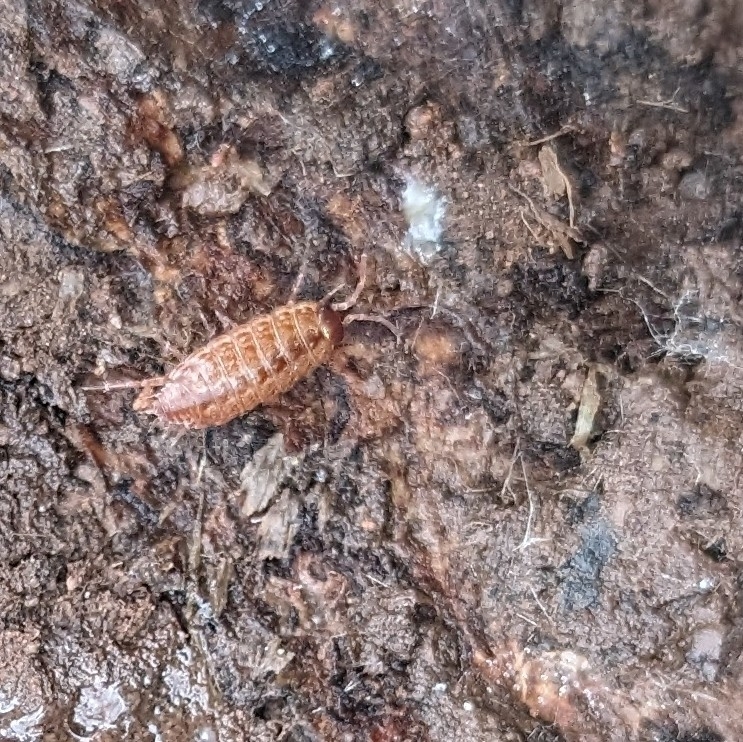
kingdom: Animalia
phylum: Arthropoda
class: Malacostraca
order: Isopoda
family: Philosciidae
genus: Philoscia
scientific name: Philoscia muscorum
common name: Common striped woodlouse
